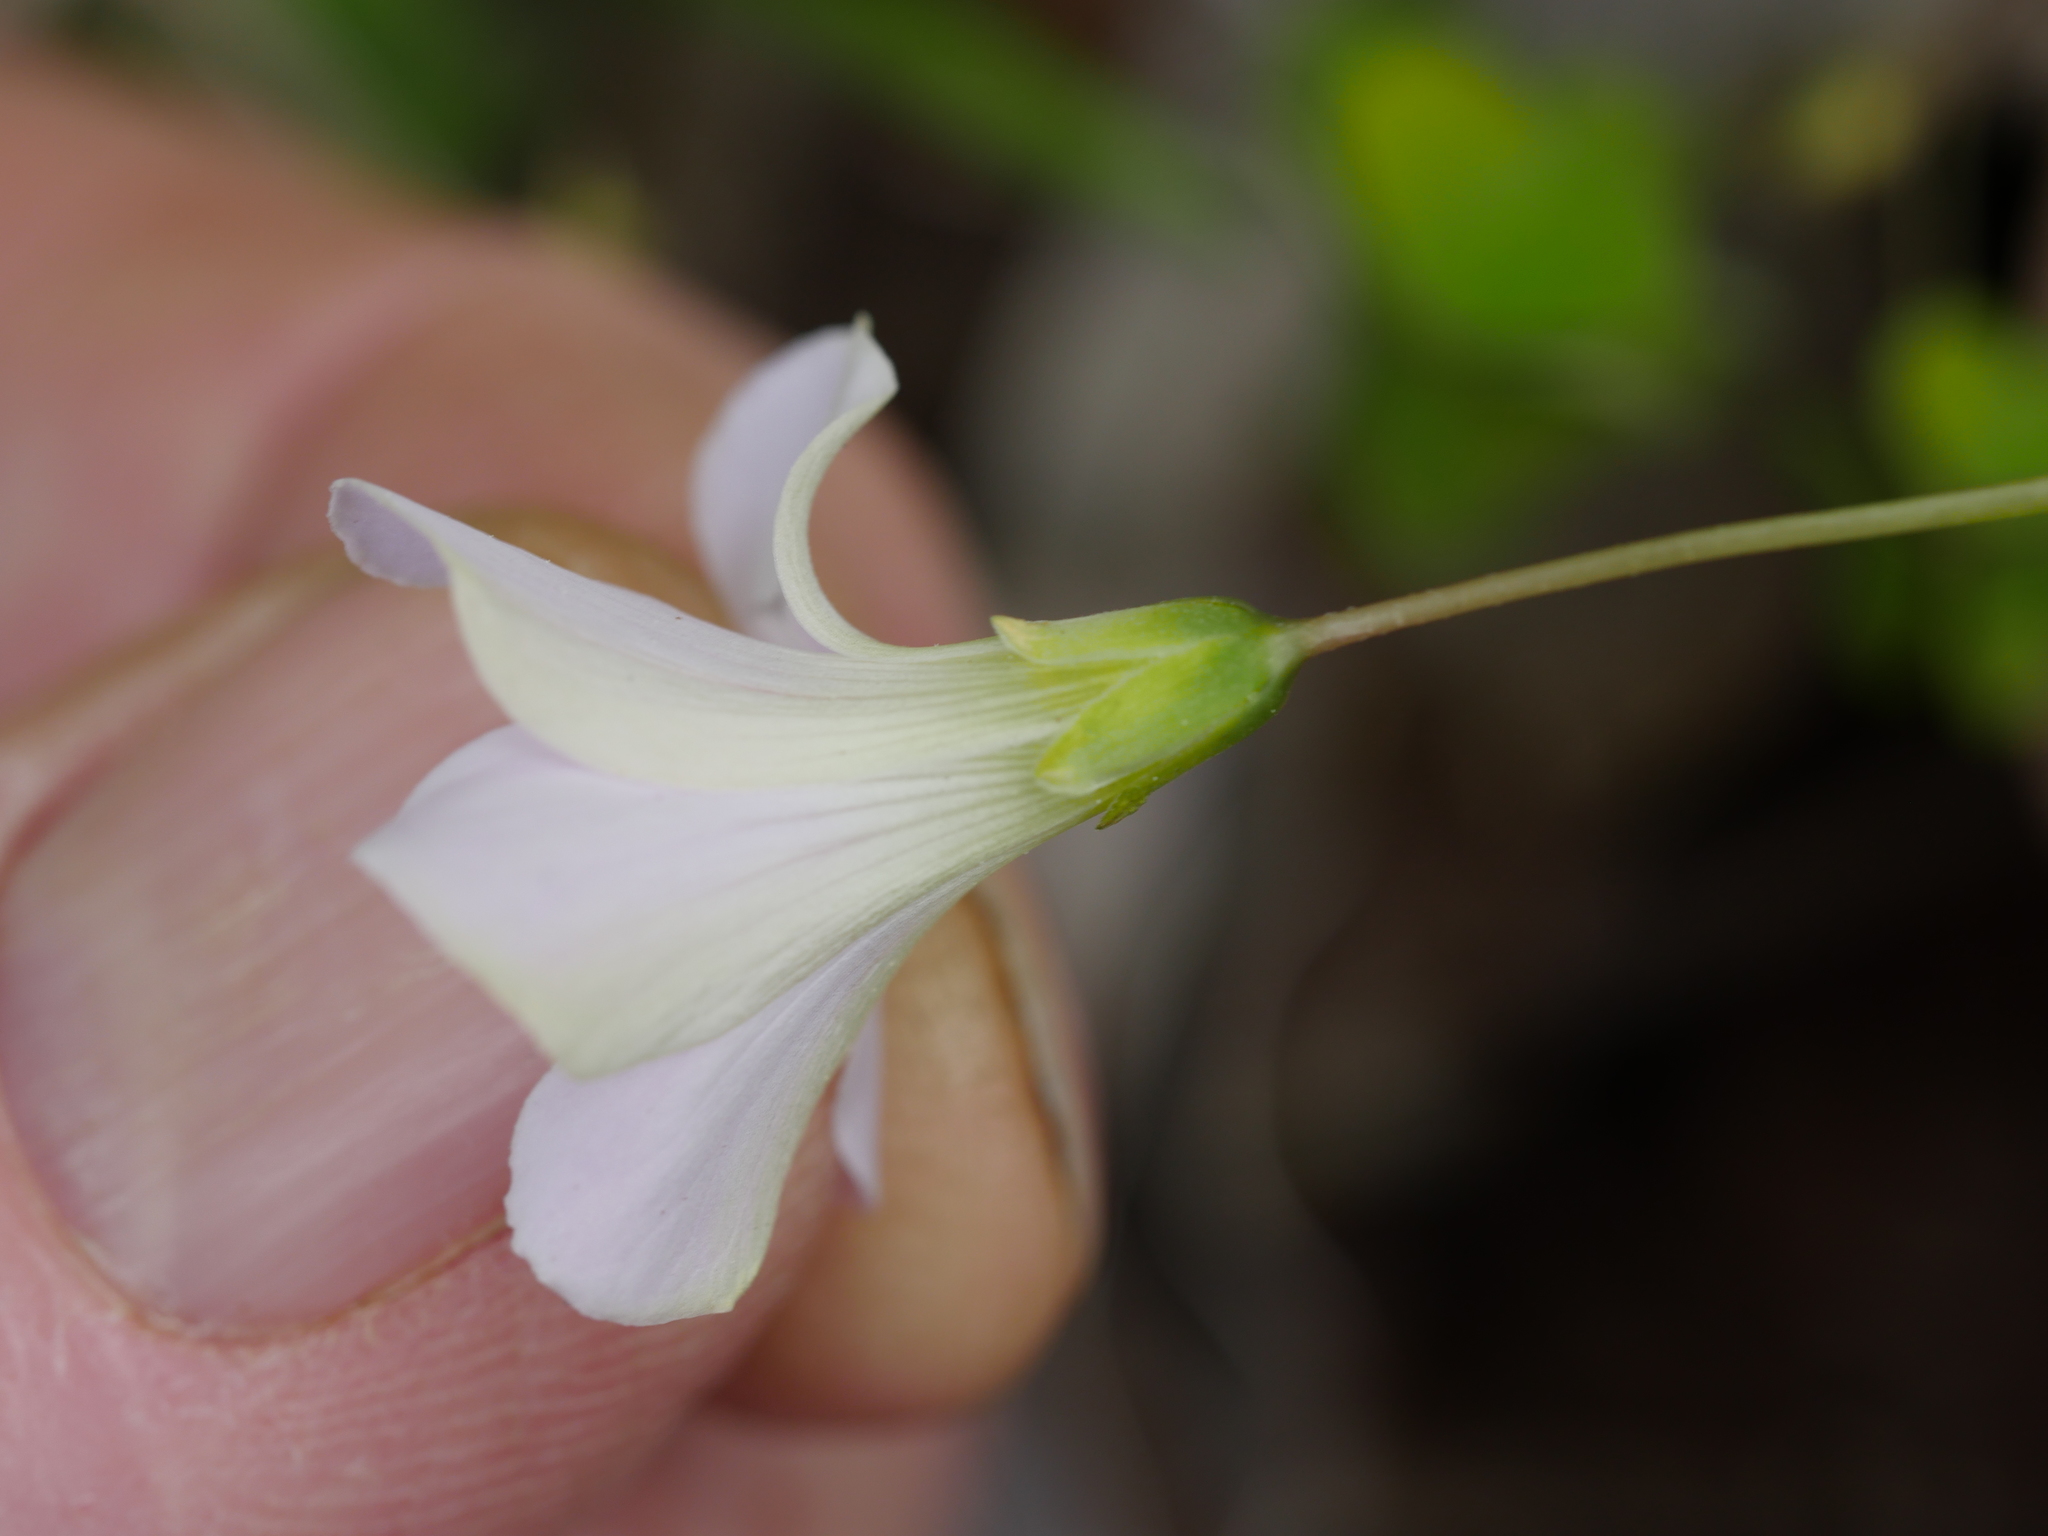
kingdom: Plantae
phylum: Tracheophyta
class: Magnoliopsida
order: Oxalidales
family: Oxalidaceae
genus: Oxalis
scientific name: Oxalis incarnata
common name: Pale pink-sorrel
